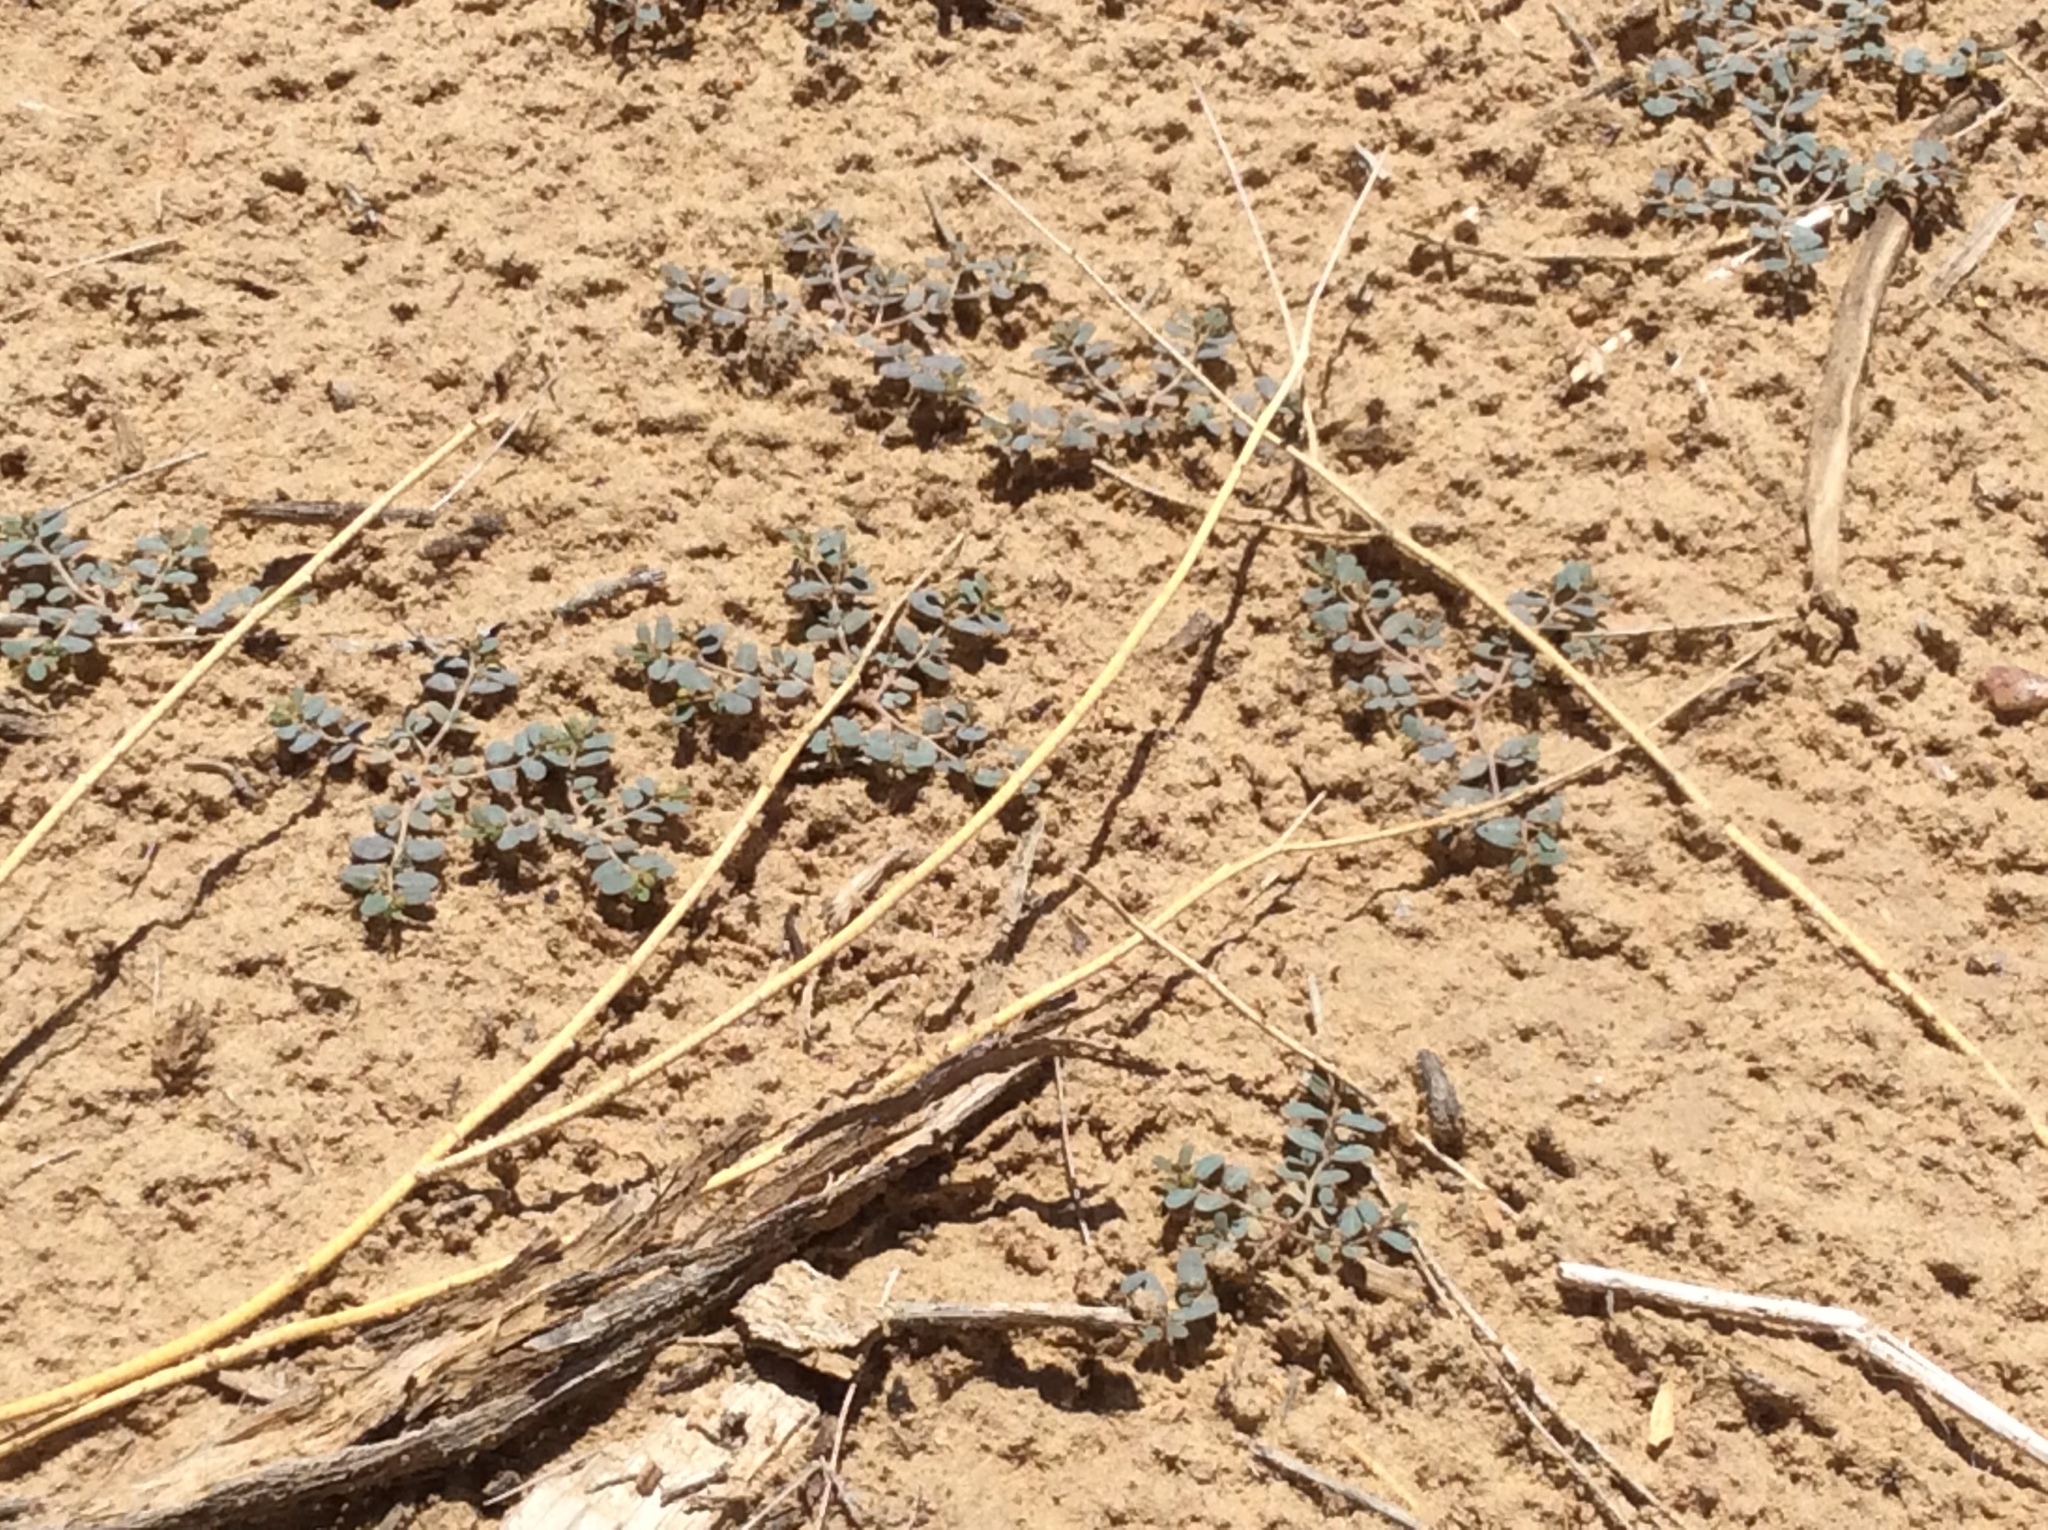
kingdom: Plantae
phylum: Tracheophyta
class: Magnoliopsida
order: Malpighiales
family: Euphorbiaceae
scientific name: Euphorbiaceae
